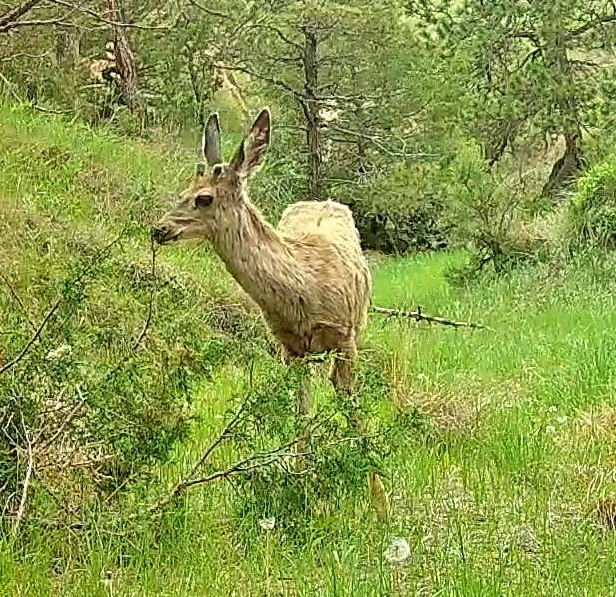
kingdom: Animalia
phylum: Chordata
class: Mammalia
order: Artiodactyla
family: Cervidae
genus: Odocoileus
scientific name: Odocoileus hemionus
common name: Mule deer
